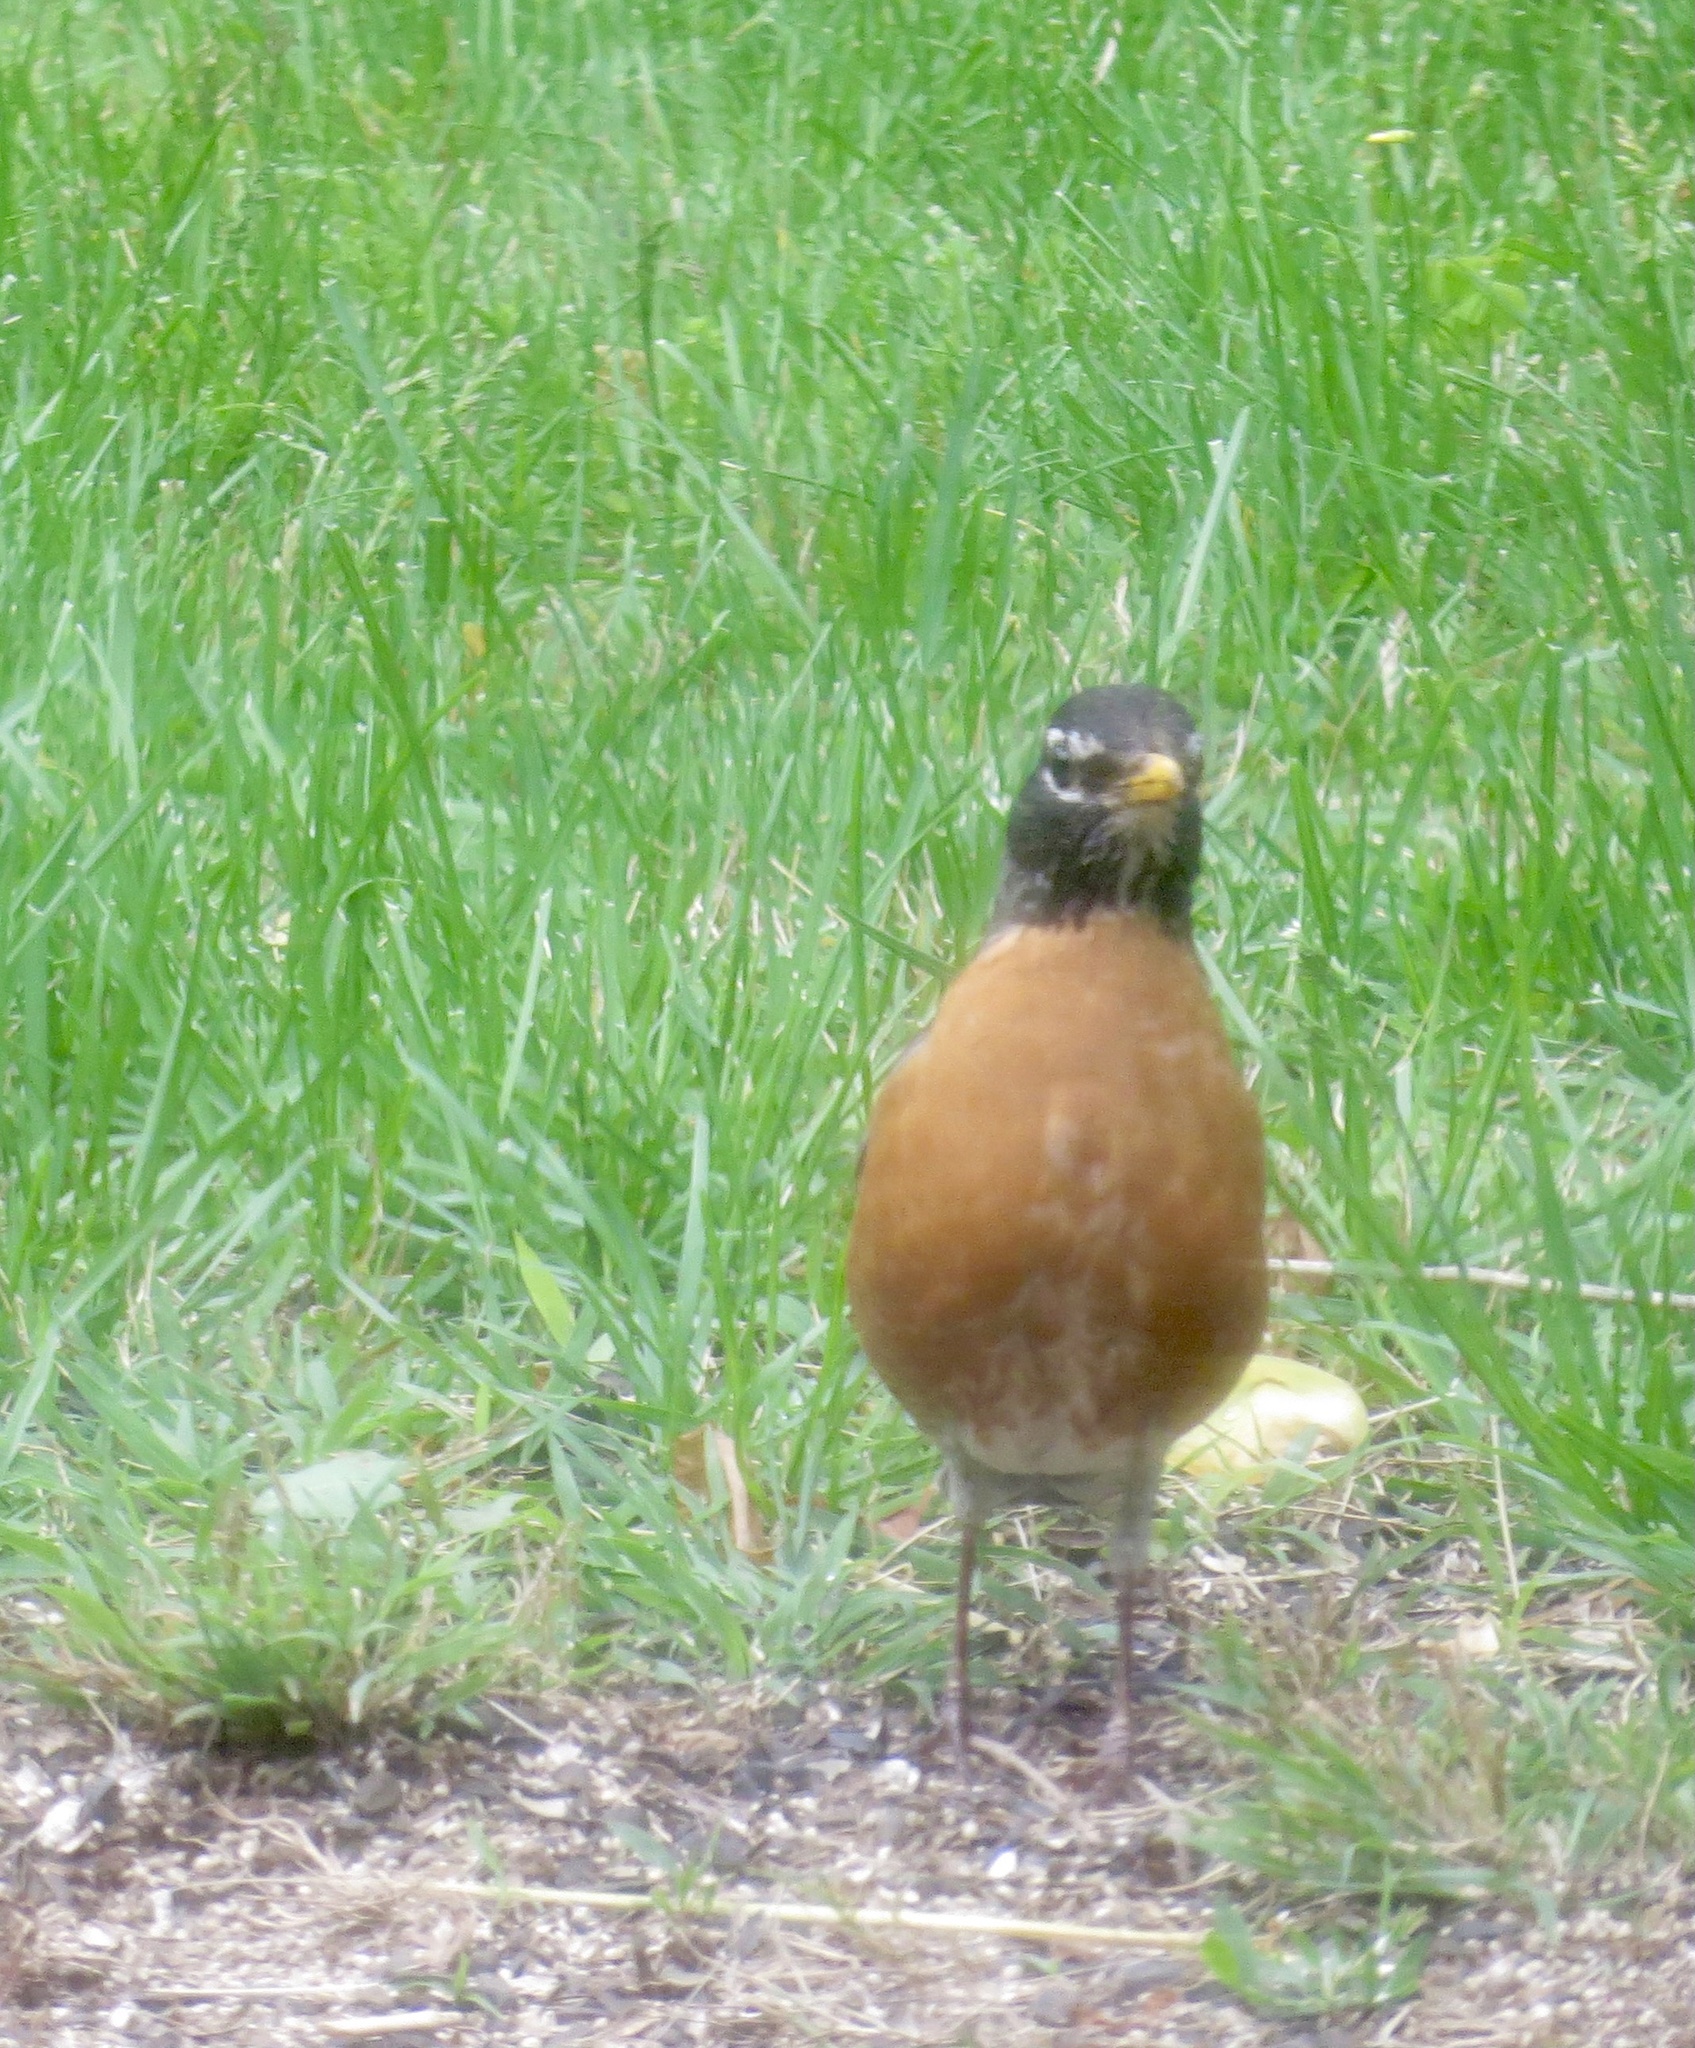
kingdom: Animalia
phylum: Chordata
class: Aves
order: Passeriformes
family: Turdidae
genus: Turdus
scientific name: Turdus migratorius
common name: American robin
